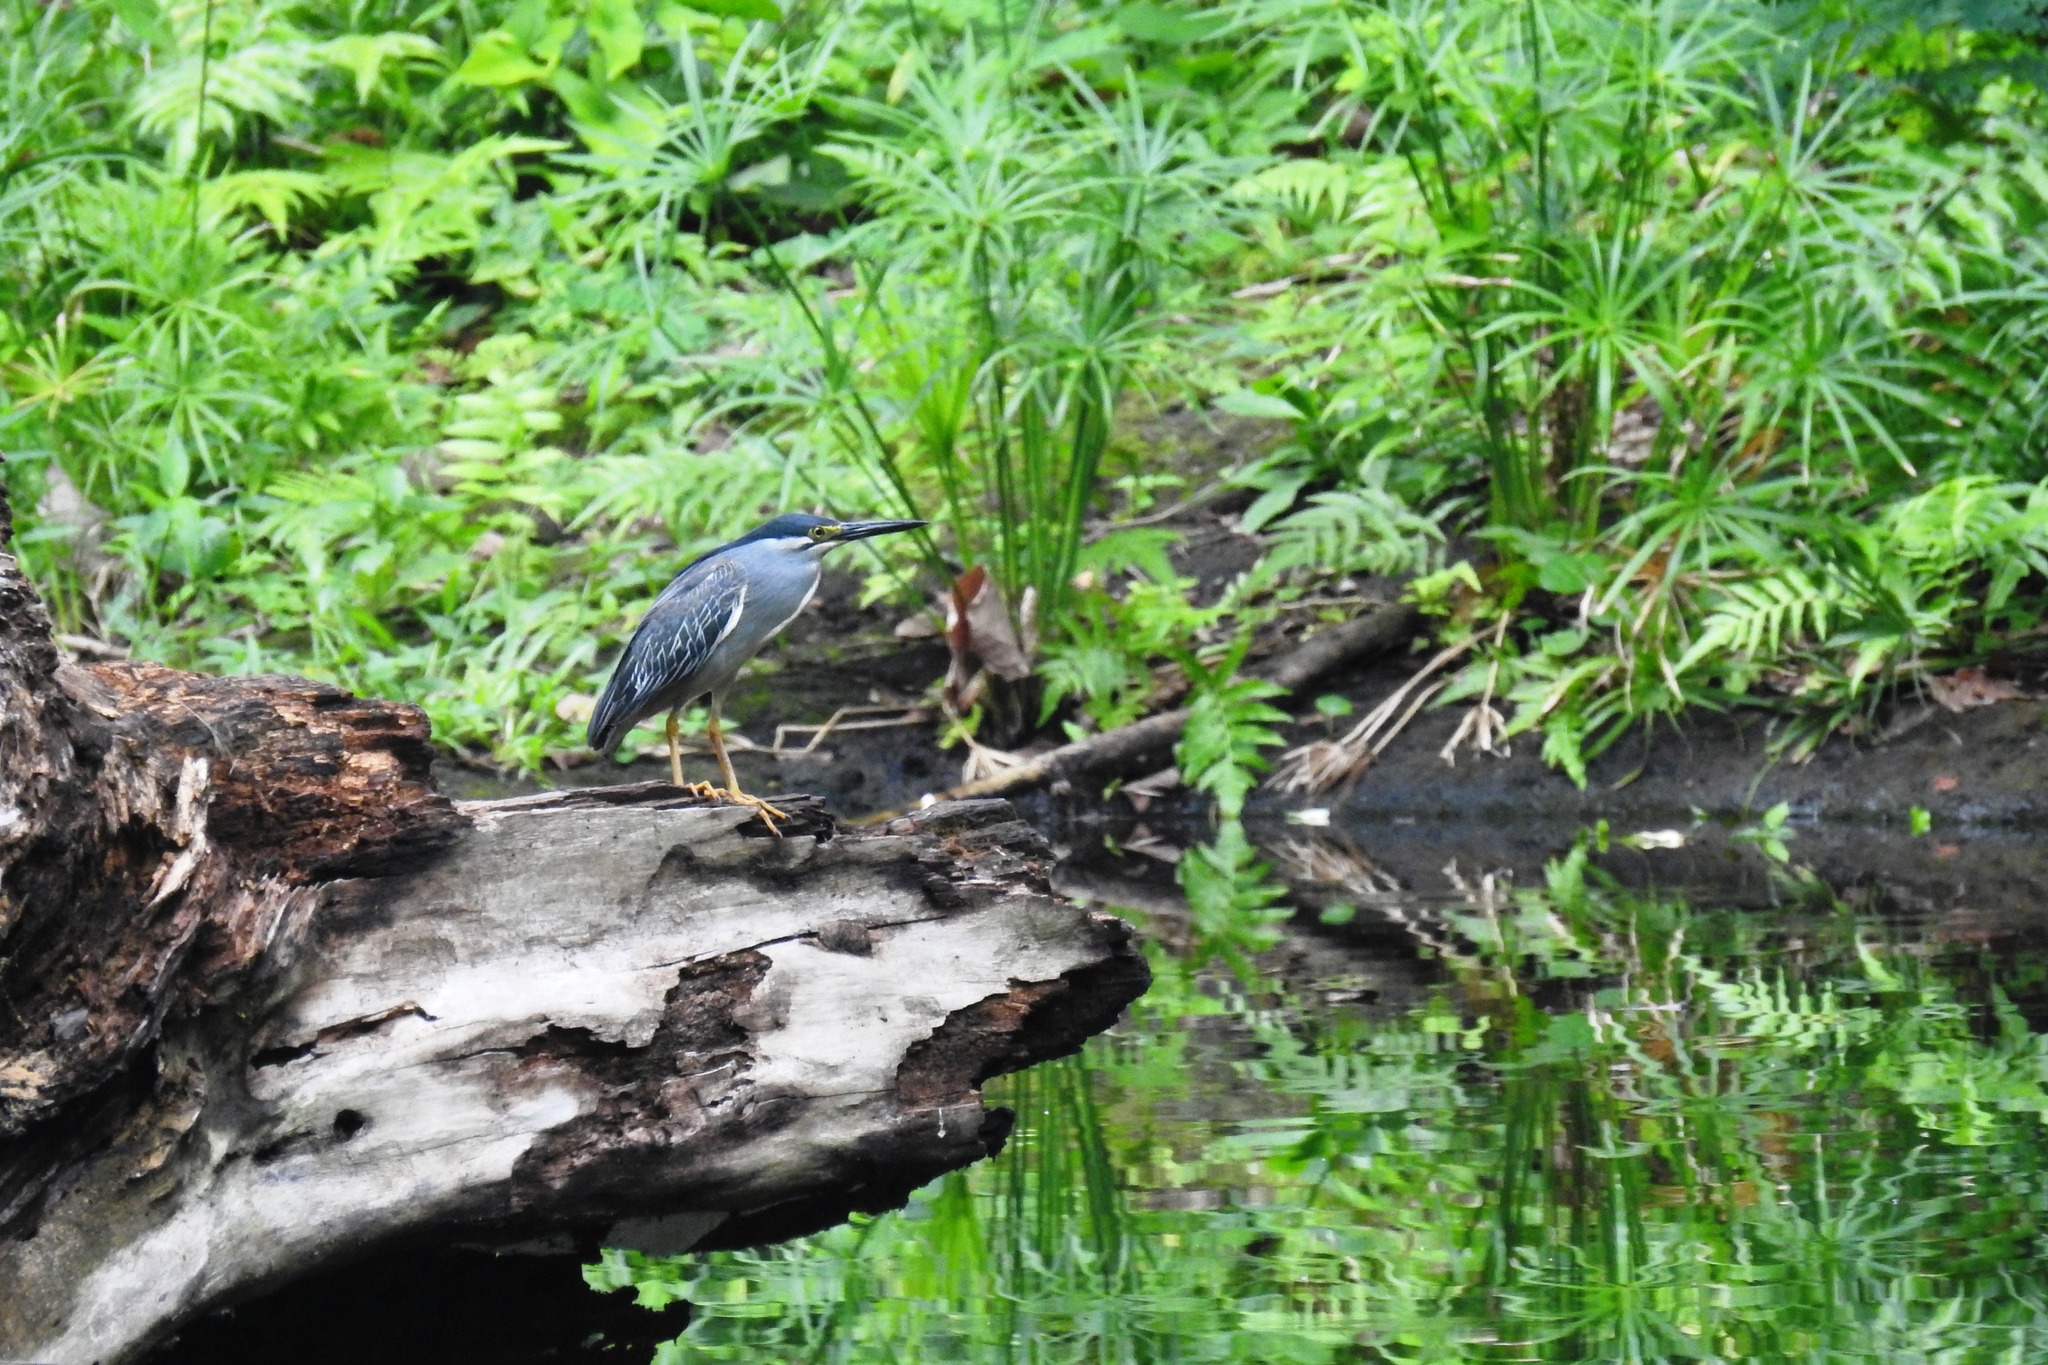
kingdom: Animalia
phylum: Chordata
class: Aves
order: Pelecaniformes
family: Ardeidae
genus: Butorides
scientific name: Butorides striata
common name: Striated heron
